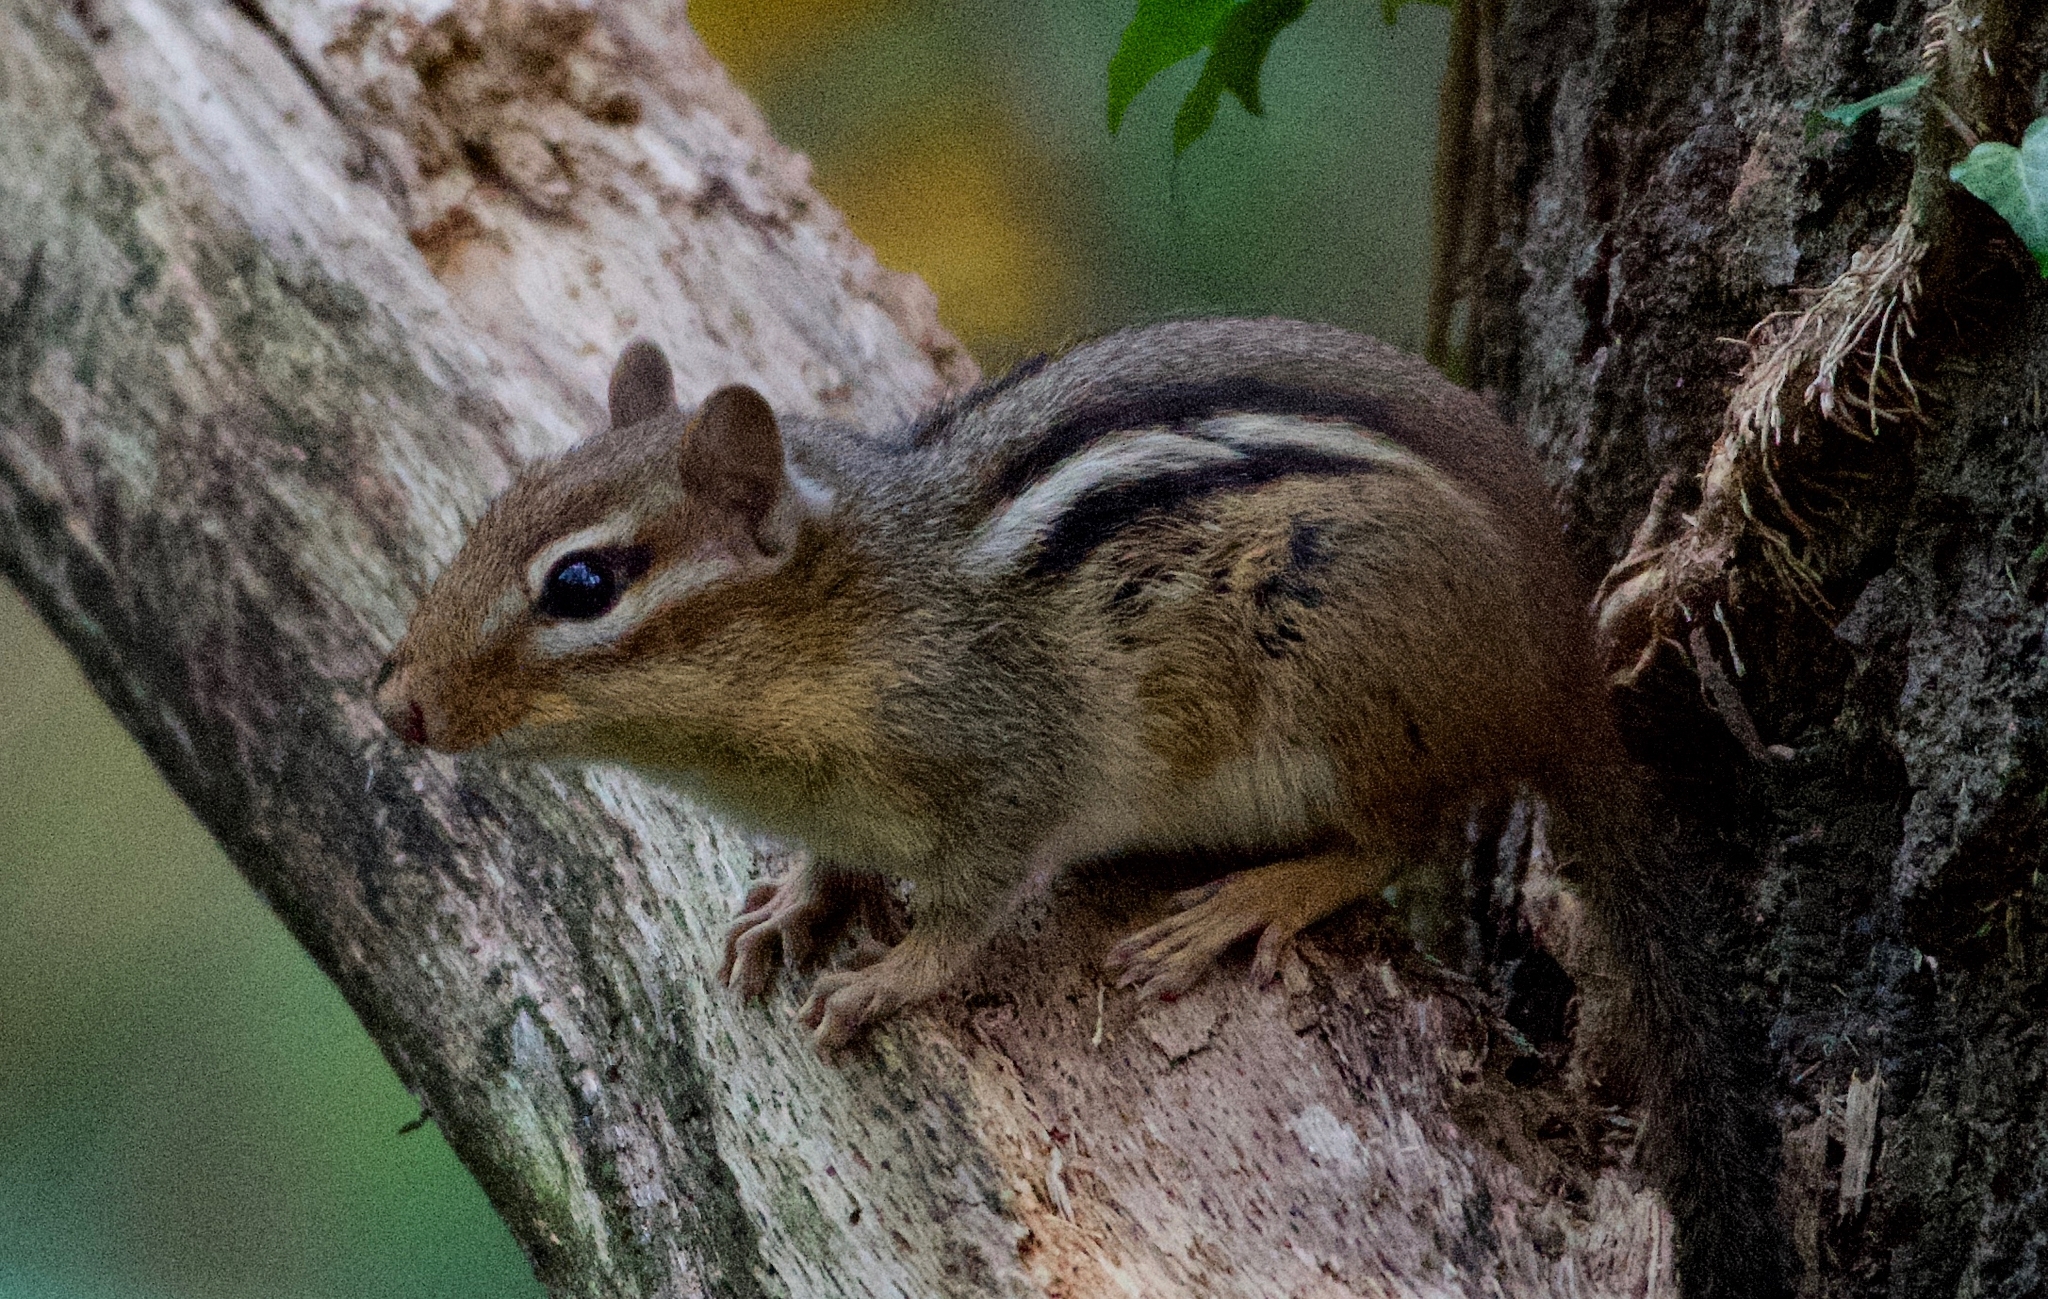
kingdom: Animalia
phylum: Chordata
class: Mammalia
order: Rodentia
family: Sciuridae
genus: Tamias
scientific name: Tamias striatus
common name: Eastern chipmunk
